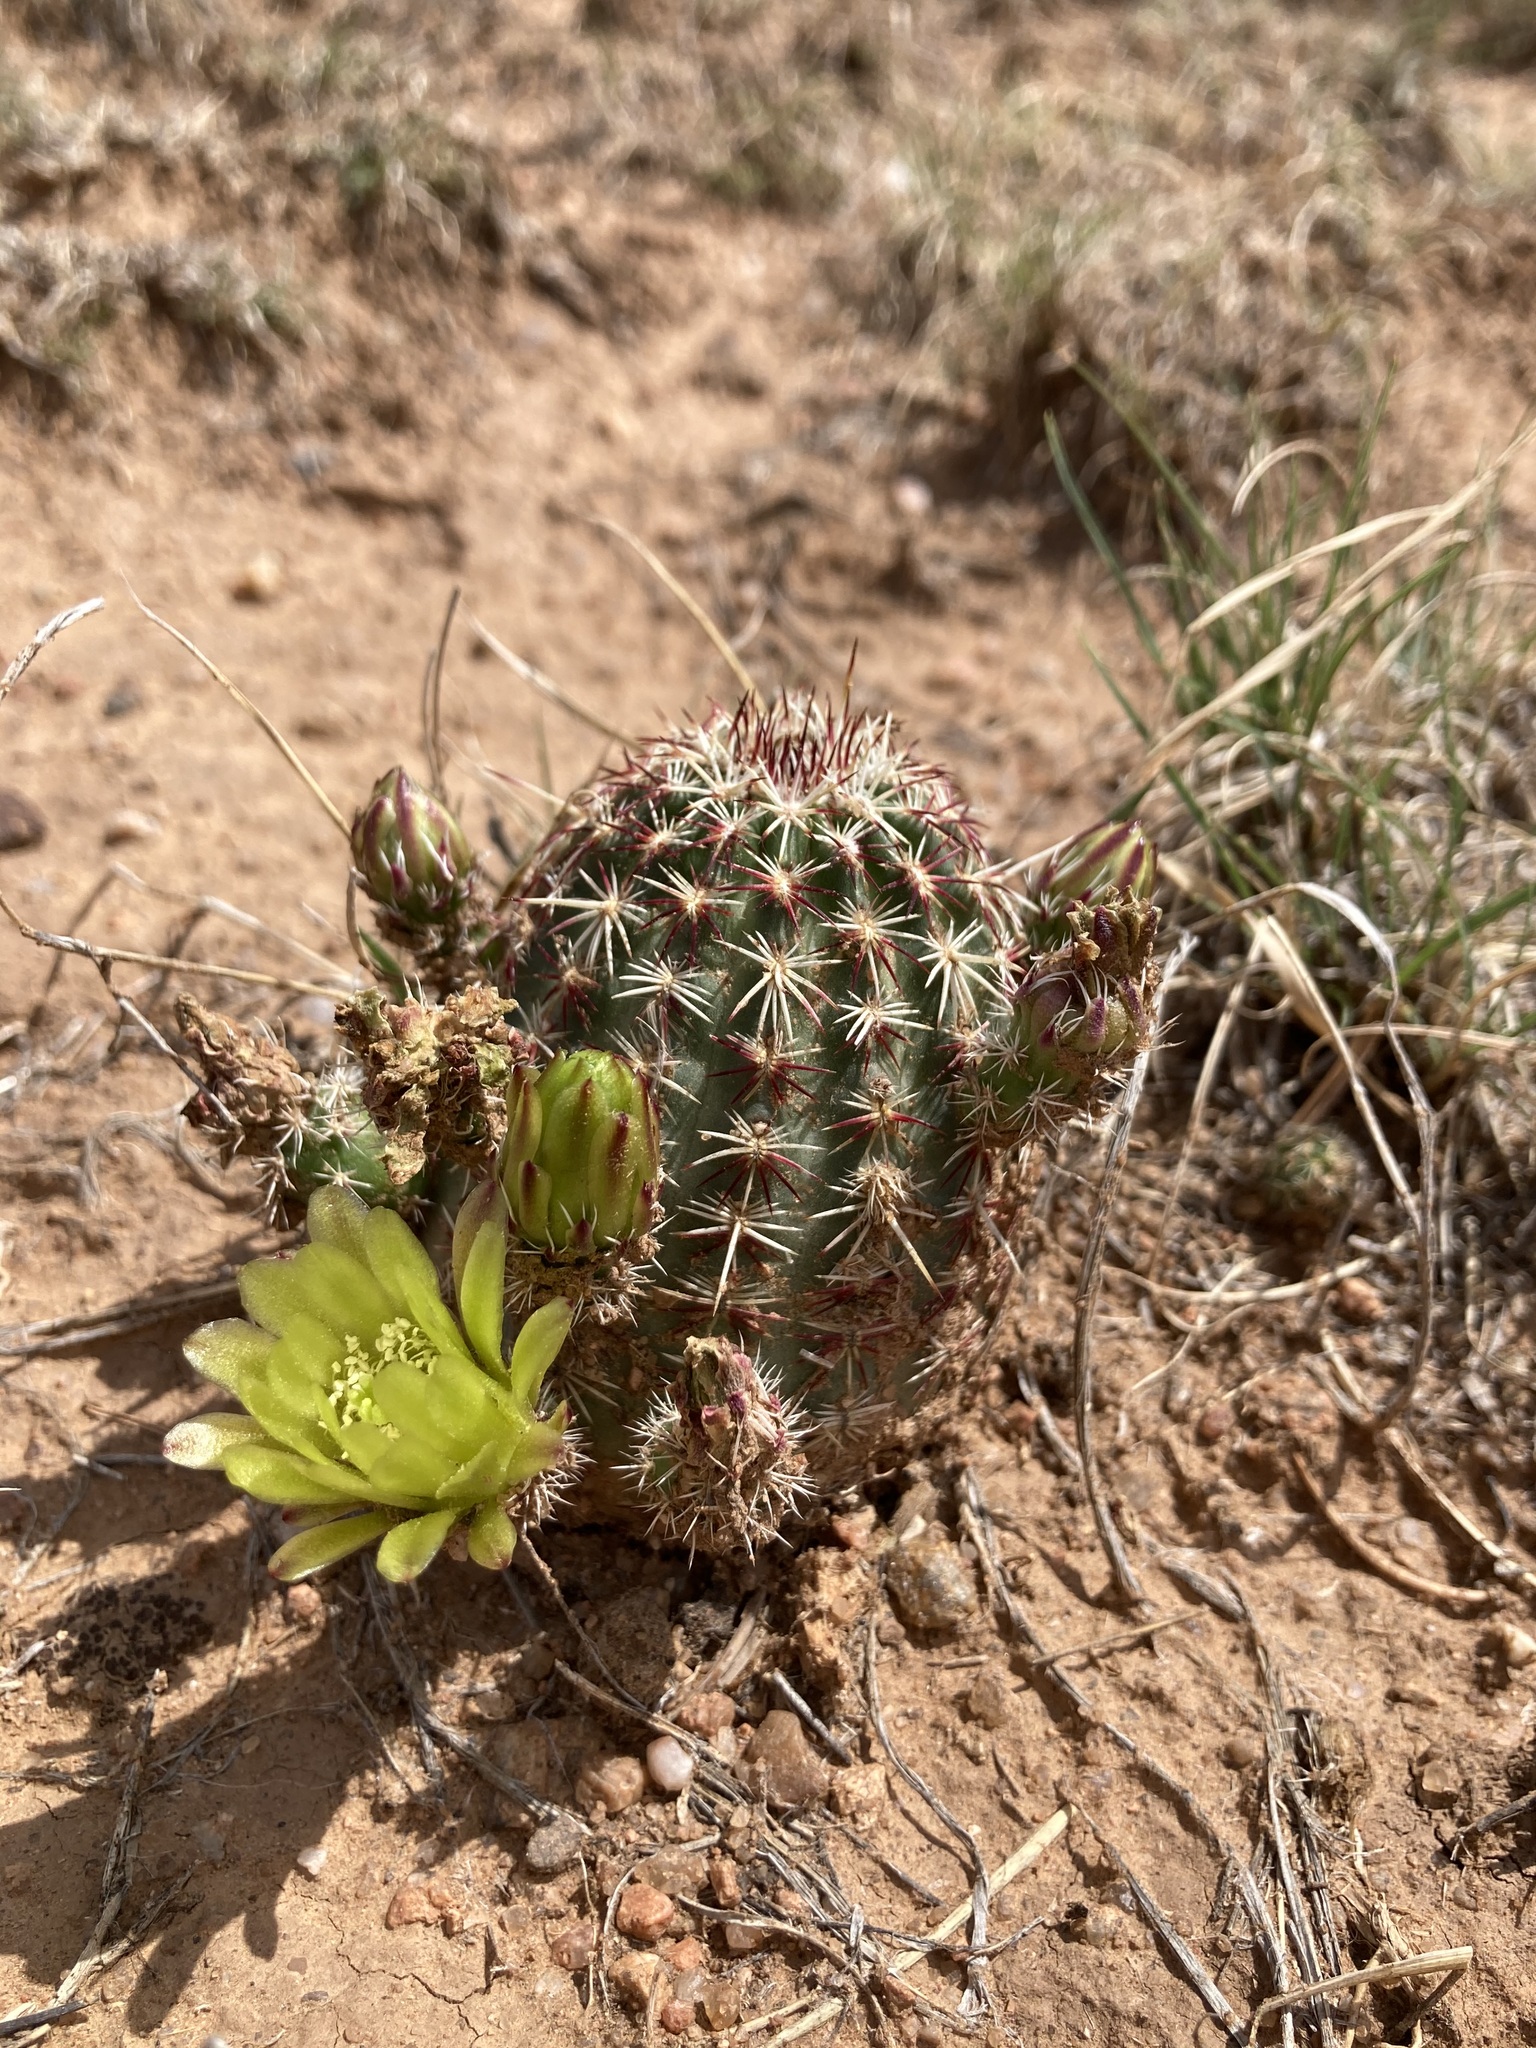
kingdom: Plantae
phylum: Tracheophyta
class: Magnoliopsida
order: Caryophyllales
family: Cactaceae
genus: Echinocereus
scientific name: Echinocereus viridiflorus
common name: Nylon hedgehog cactus
